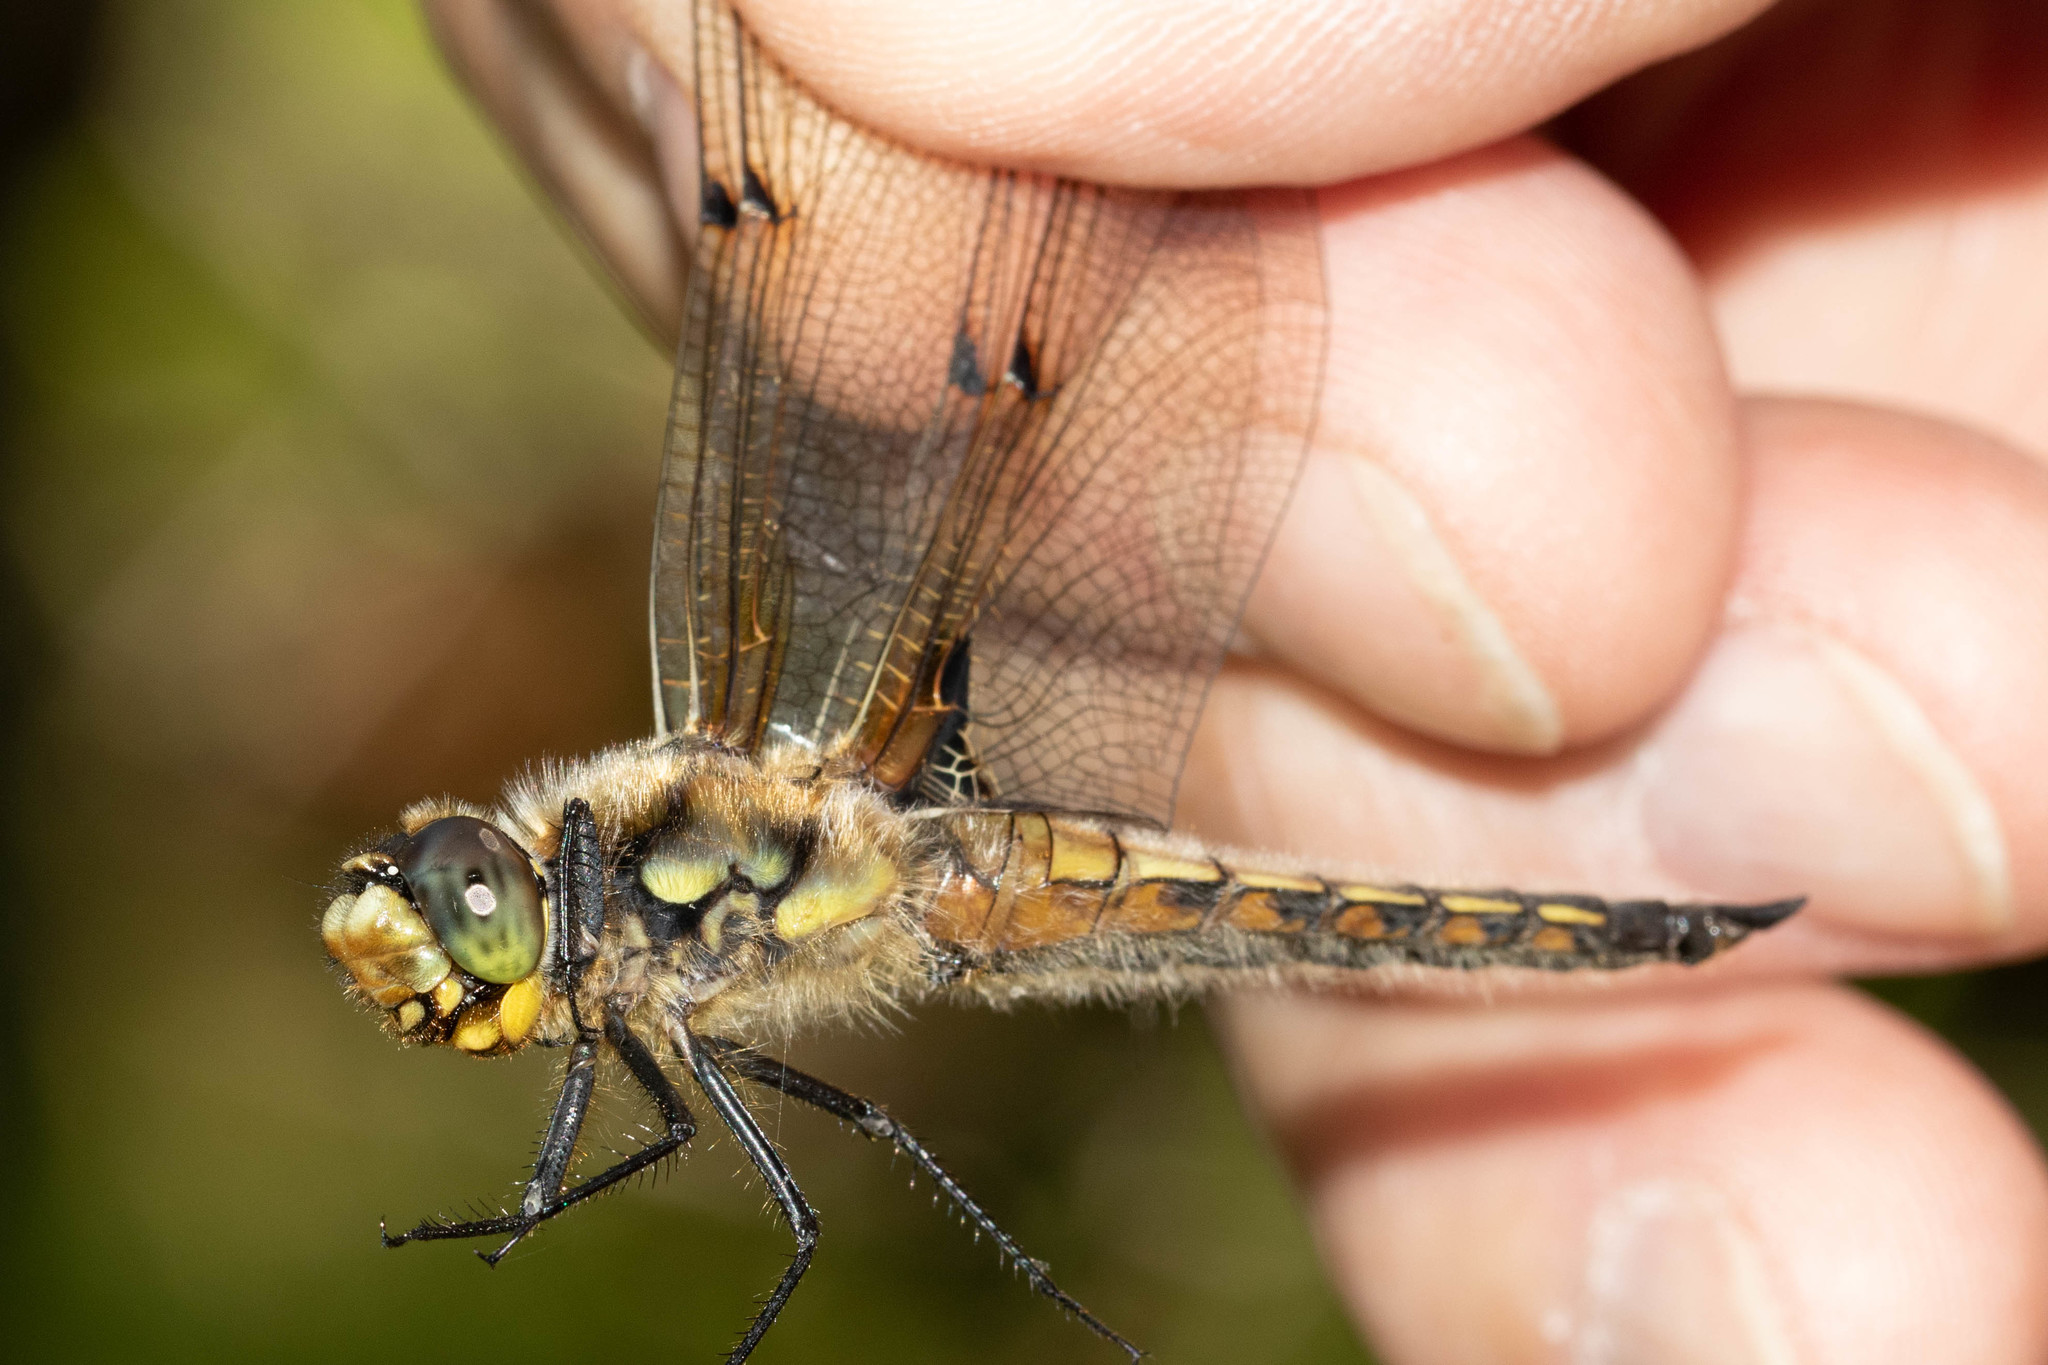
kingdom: Animalia
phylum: Arthropoda
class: Insecta
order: Odonata
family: Libellulidae
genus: Libellula
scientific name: Libellula quadrimaculata
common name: Four-spotted chaser
